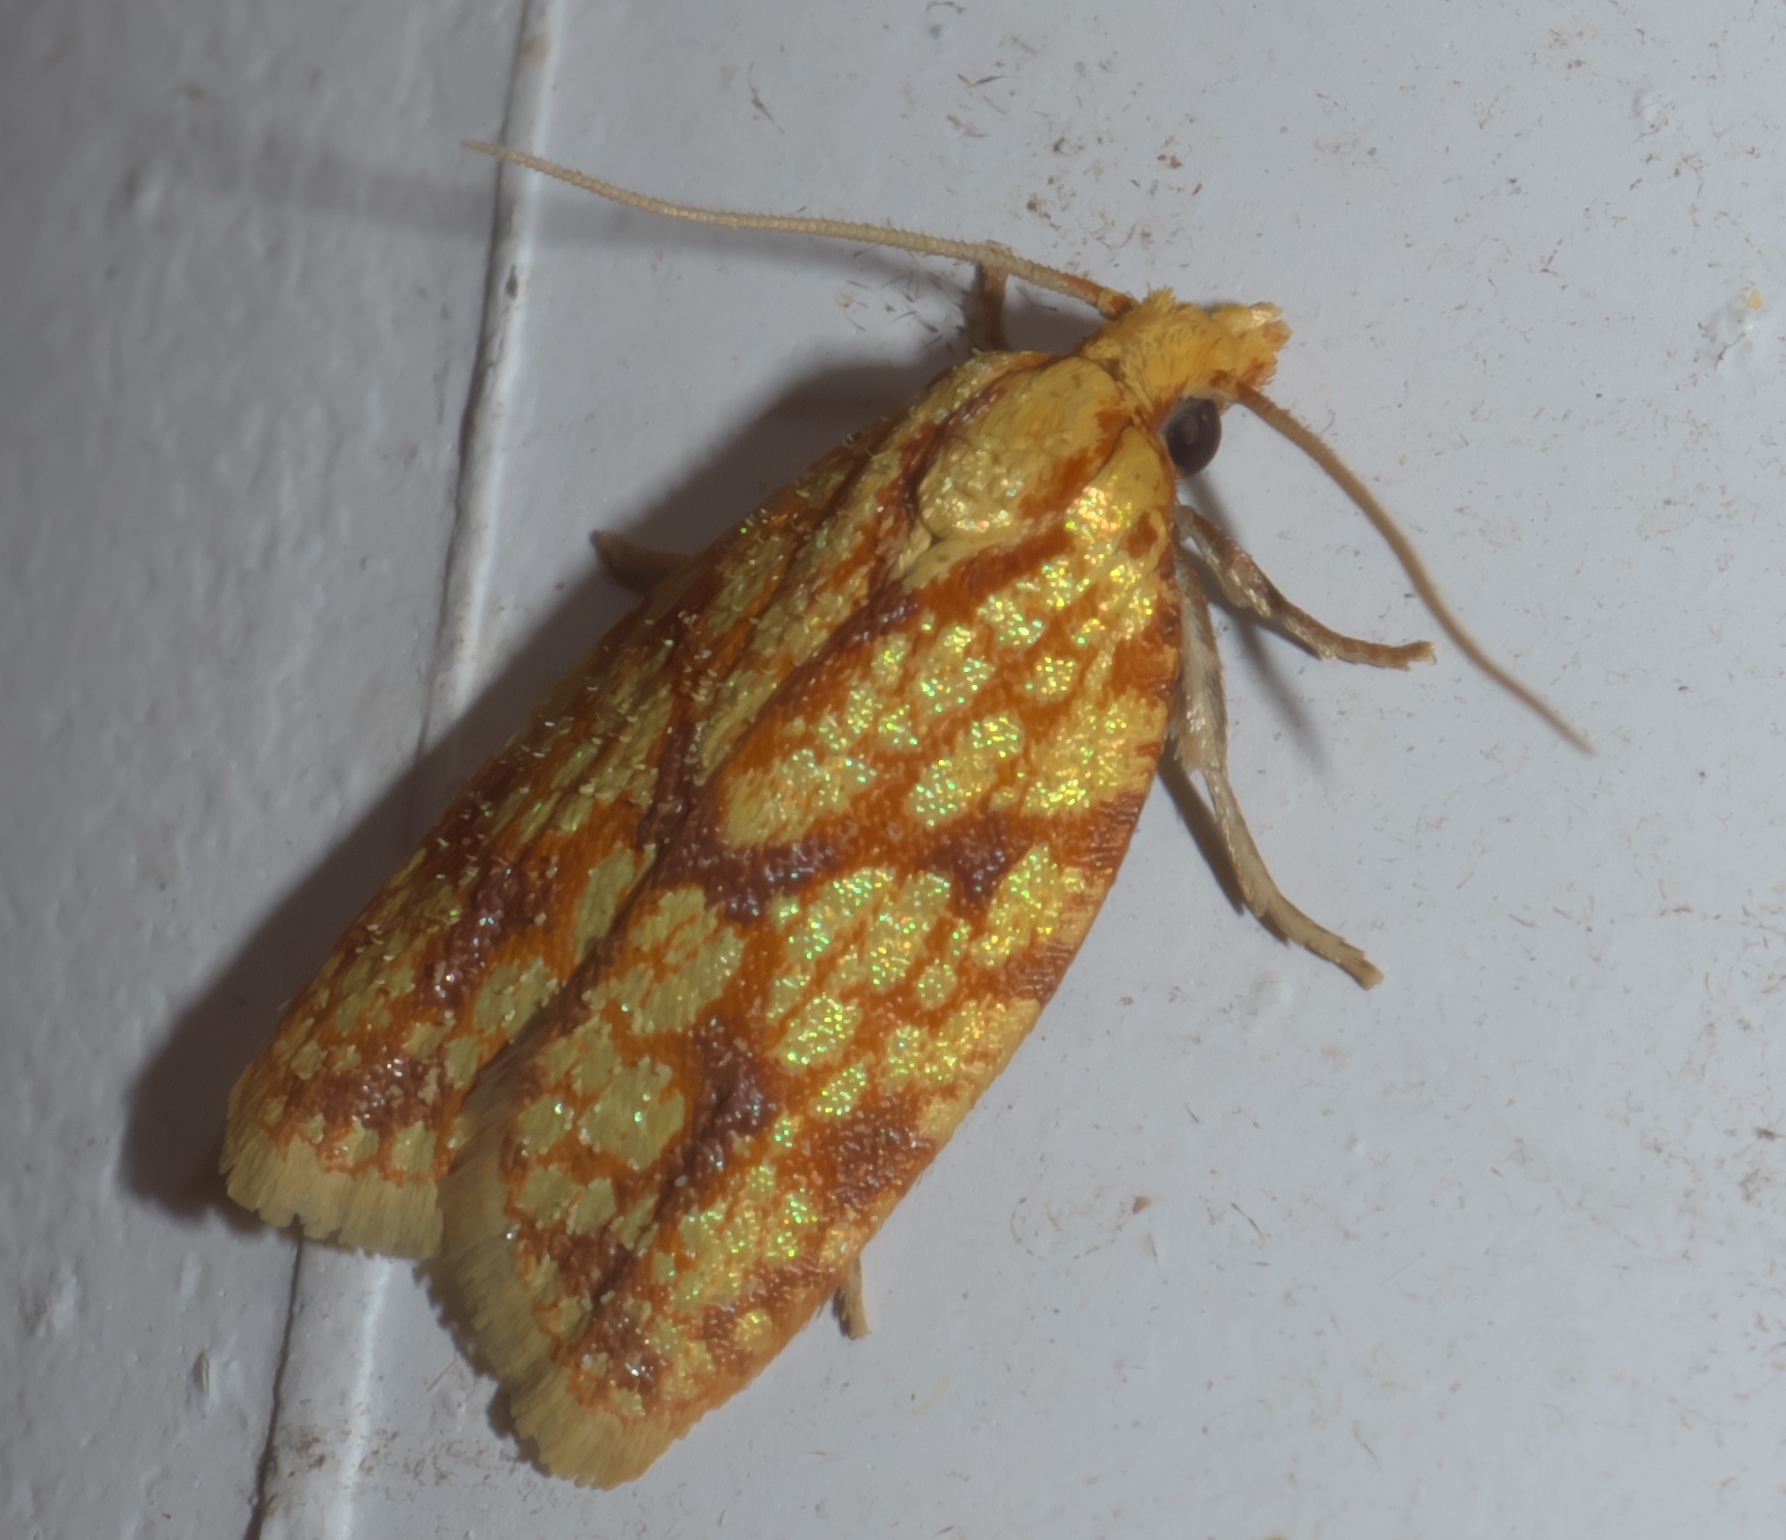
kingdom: Animalia
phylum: Arthropoda
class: Insecta
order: Lepidoptera
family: Tortricidae
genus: Sparganothis
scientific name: Sparganothis sulfureana
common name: Sparganothis fruitworm moth
